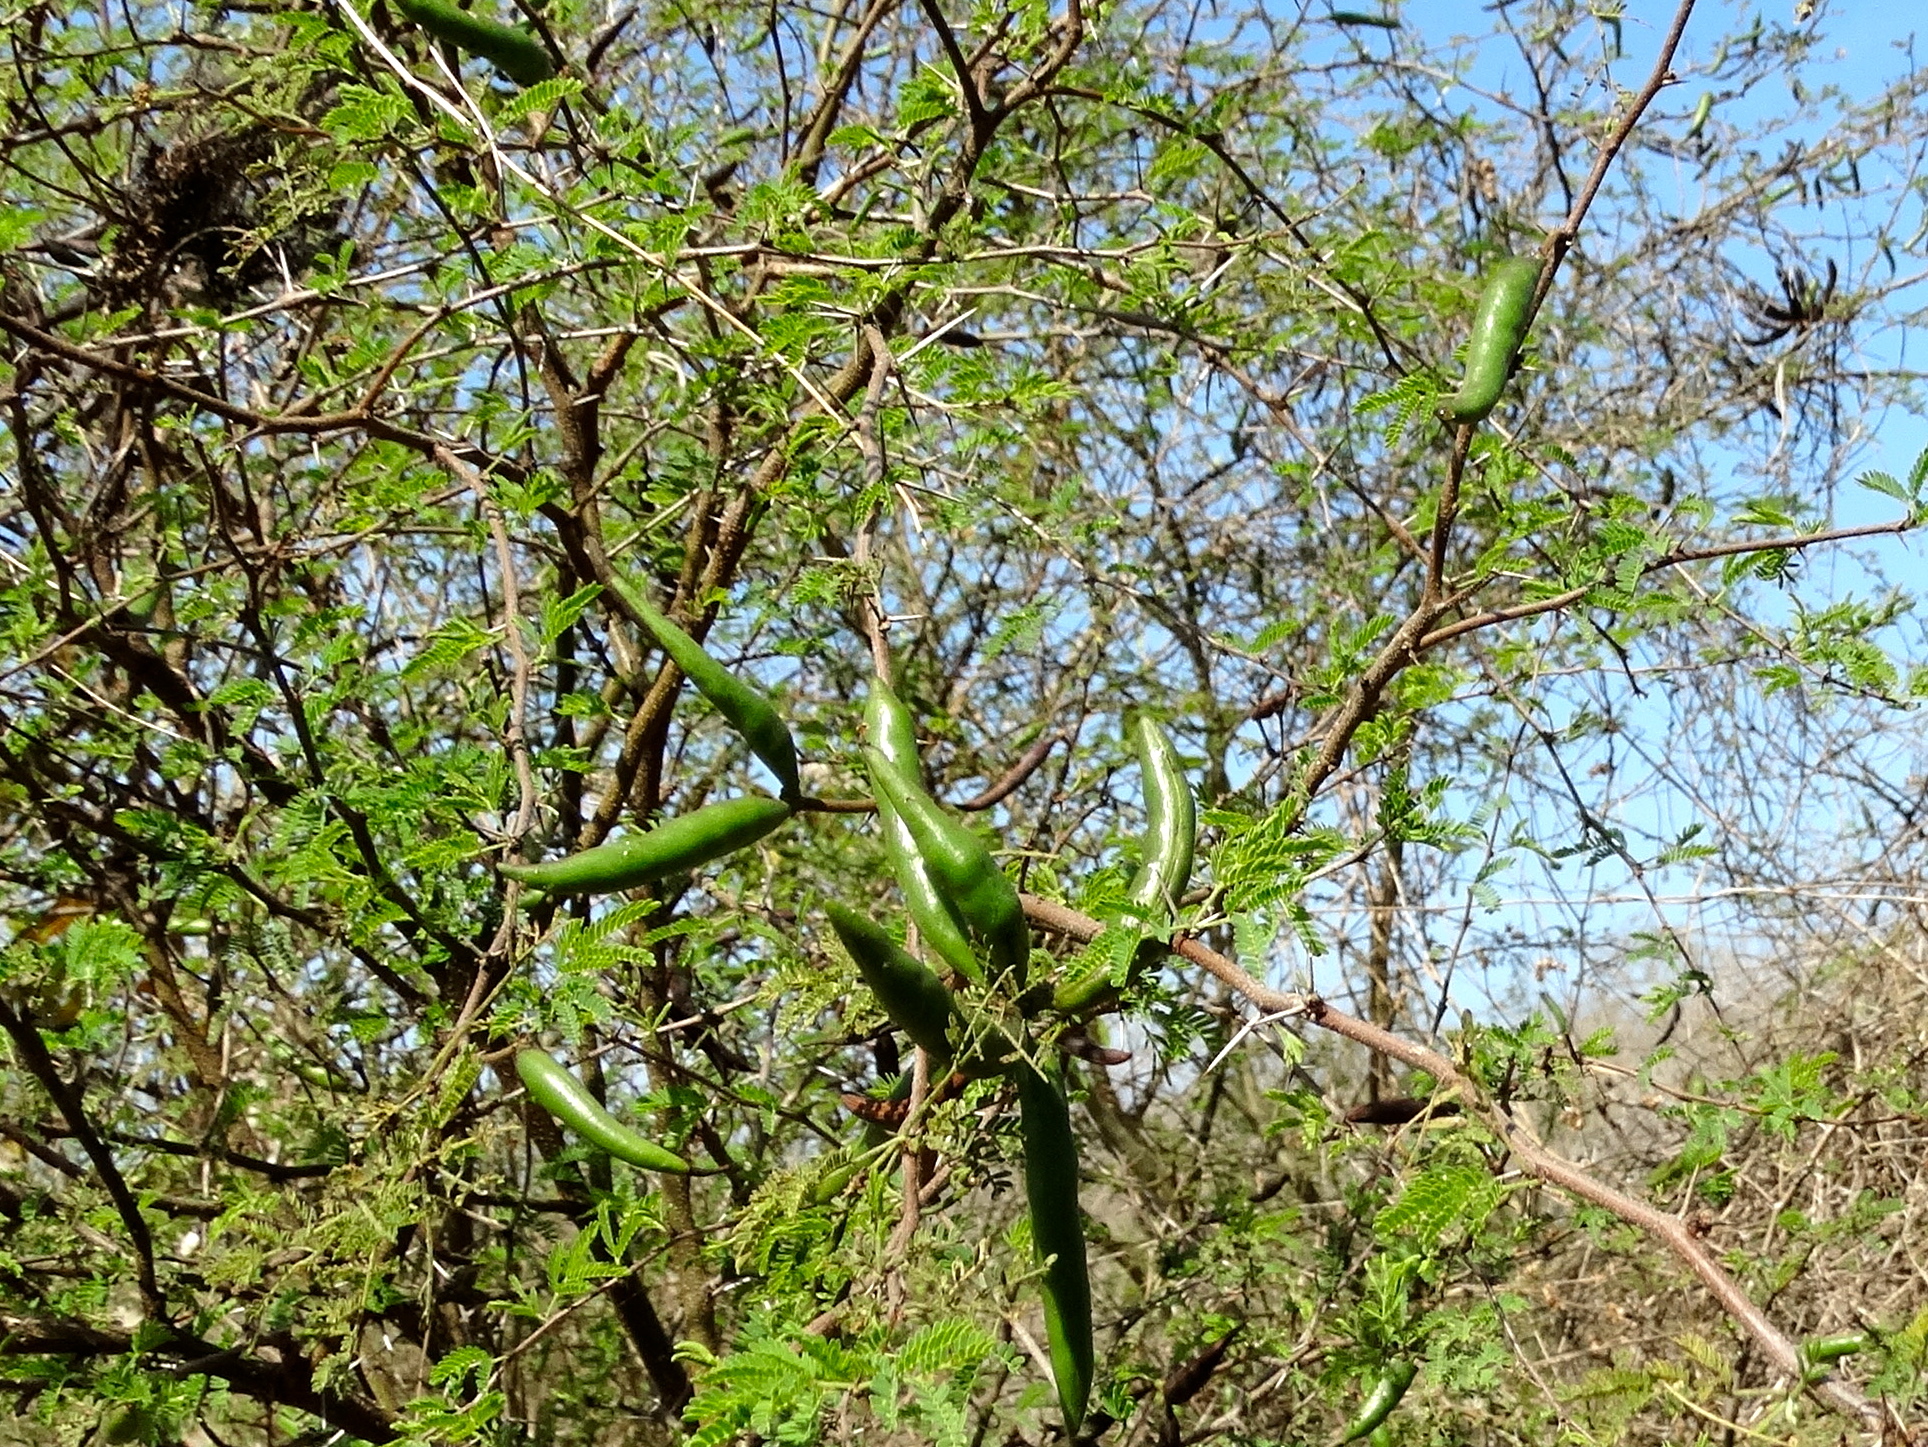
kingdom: Plantae
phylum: Tracheophyta
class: Magnoliopsida
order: Fabales
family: Fabaceae
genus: Vachellia
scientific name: Vachellia farnesiana
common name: Sweet acacia
